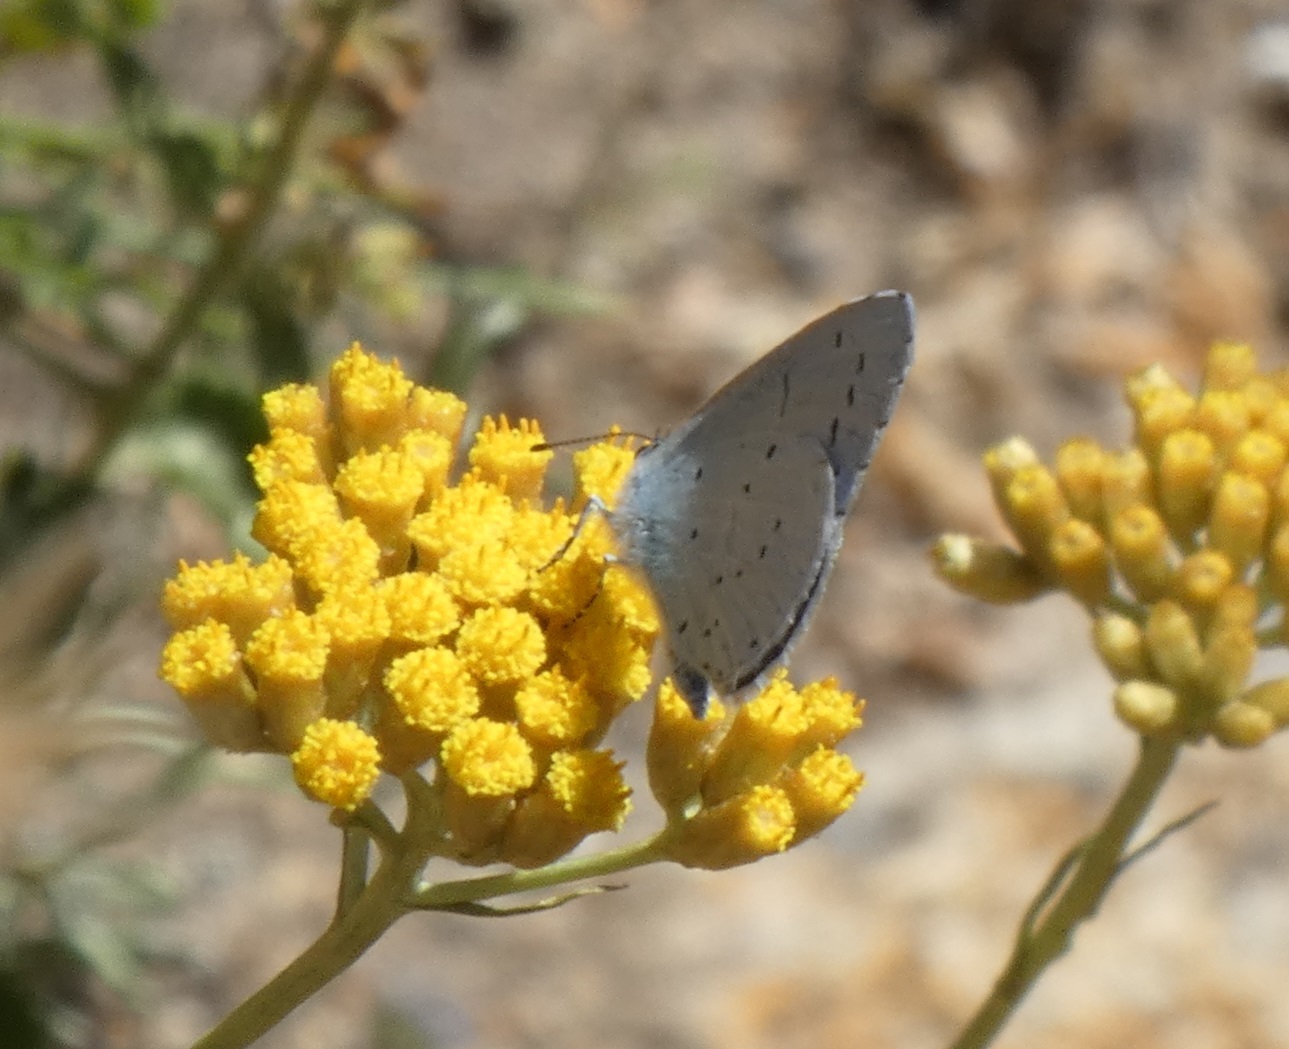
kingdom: Animalia
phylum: Arthropoda
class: Insecta
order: Lepidoptera
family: Lycaenidae
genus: Celastrina
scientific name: Celastrina argiolus
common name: Holly blue
